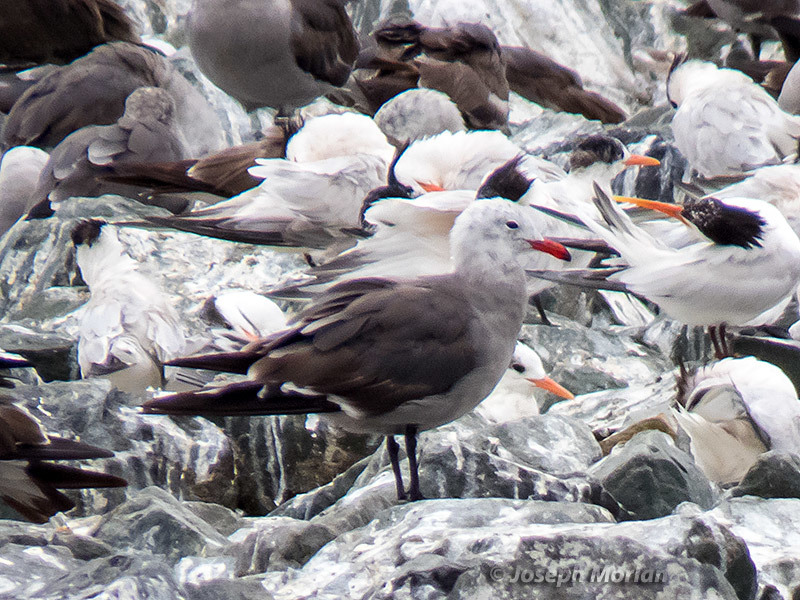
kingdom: Animalia
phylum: Chordata
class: Aves
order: Charadriiformes
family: Laridae
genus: Larus
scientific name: Larus heermanni
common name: Heermann's gull
